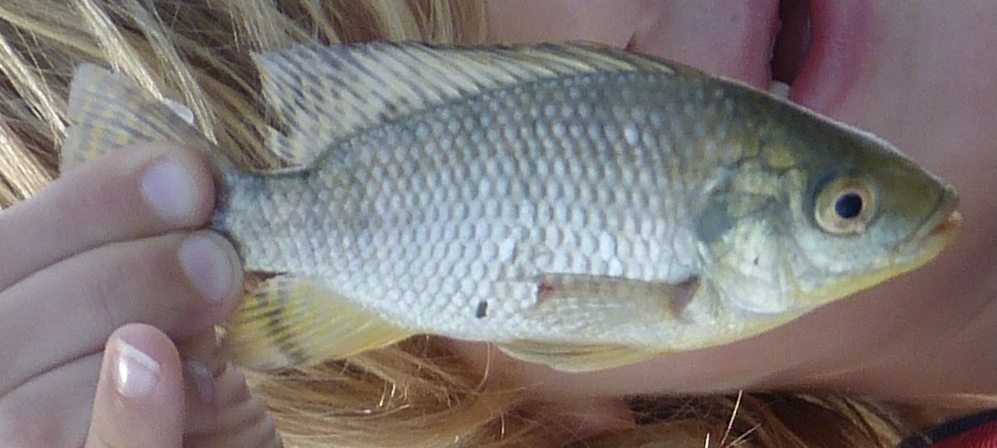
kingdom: Animalia
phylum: Chordata
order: Perciformes
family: Cichlidae
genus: Oreochromis
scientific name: Oreochromis niloticus
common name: Nile tilapia
